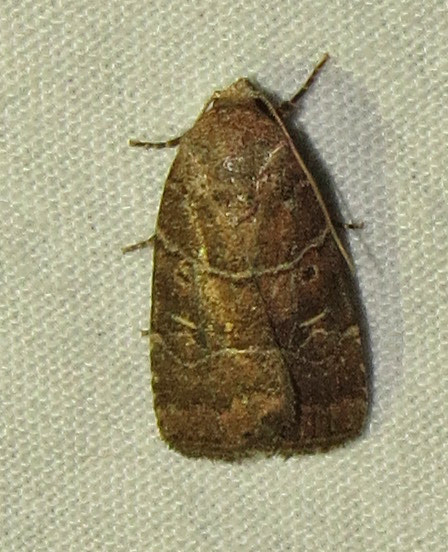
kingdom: Animalia
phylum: Arthropoda
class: Insecta
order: Lepidoptera
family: Noctuidae
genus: Elaphria
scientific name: Elaphria grata
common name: Grateful midget moth
